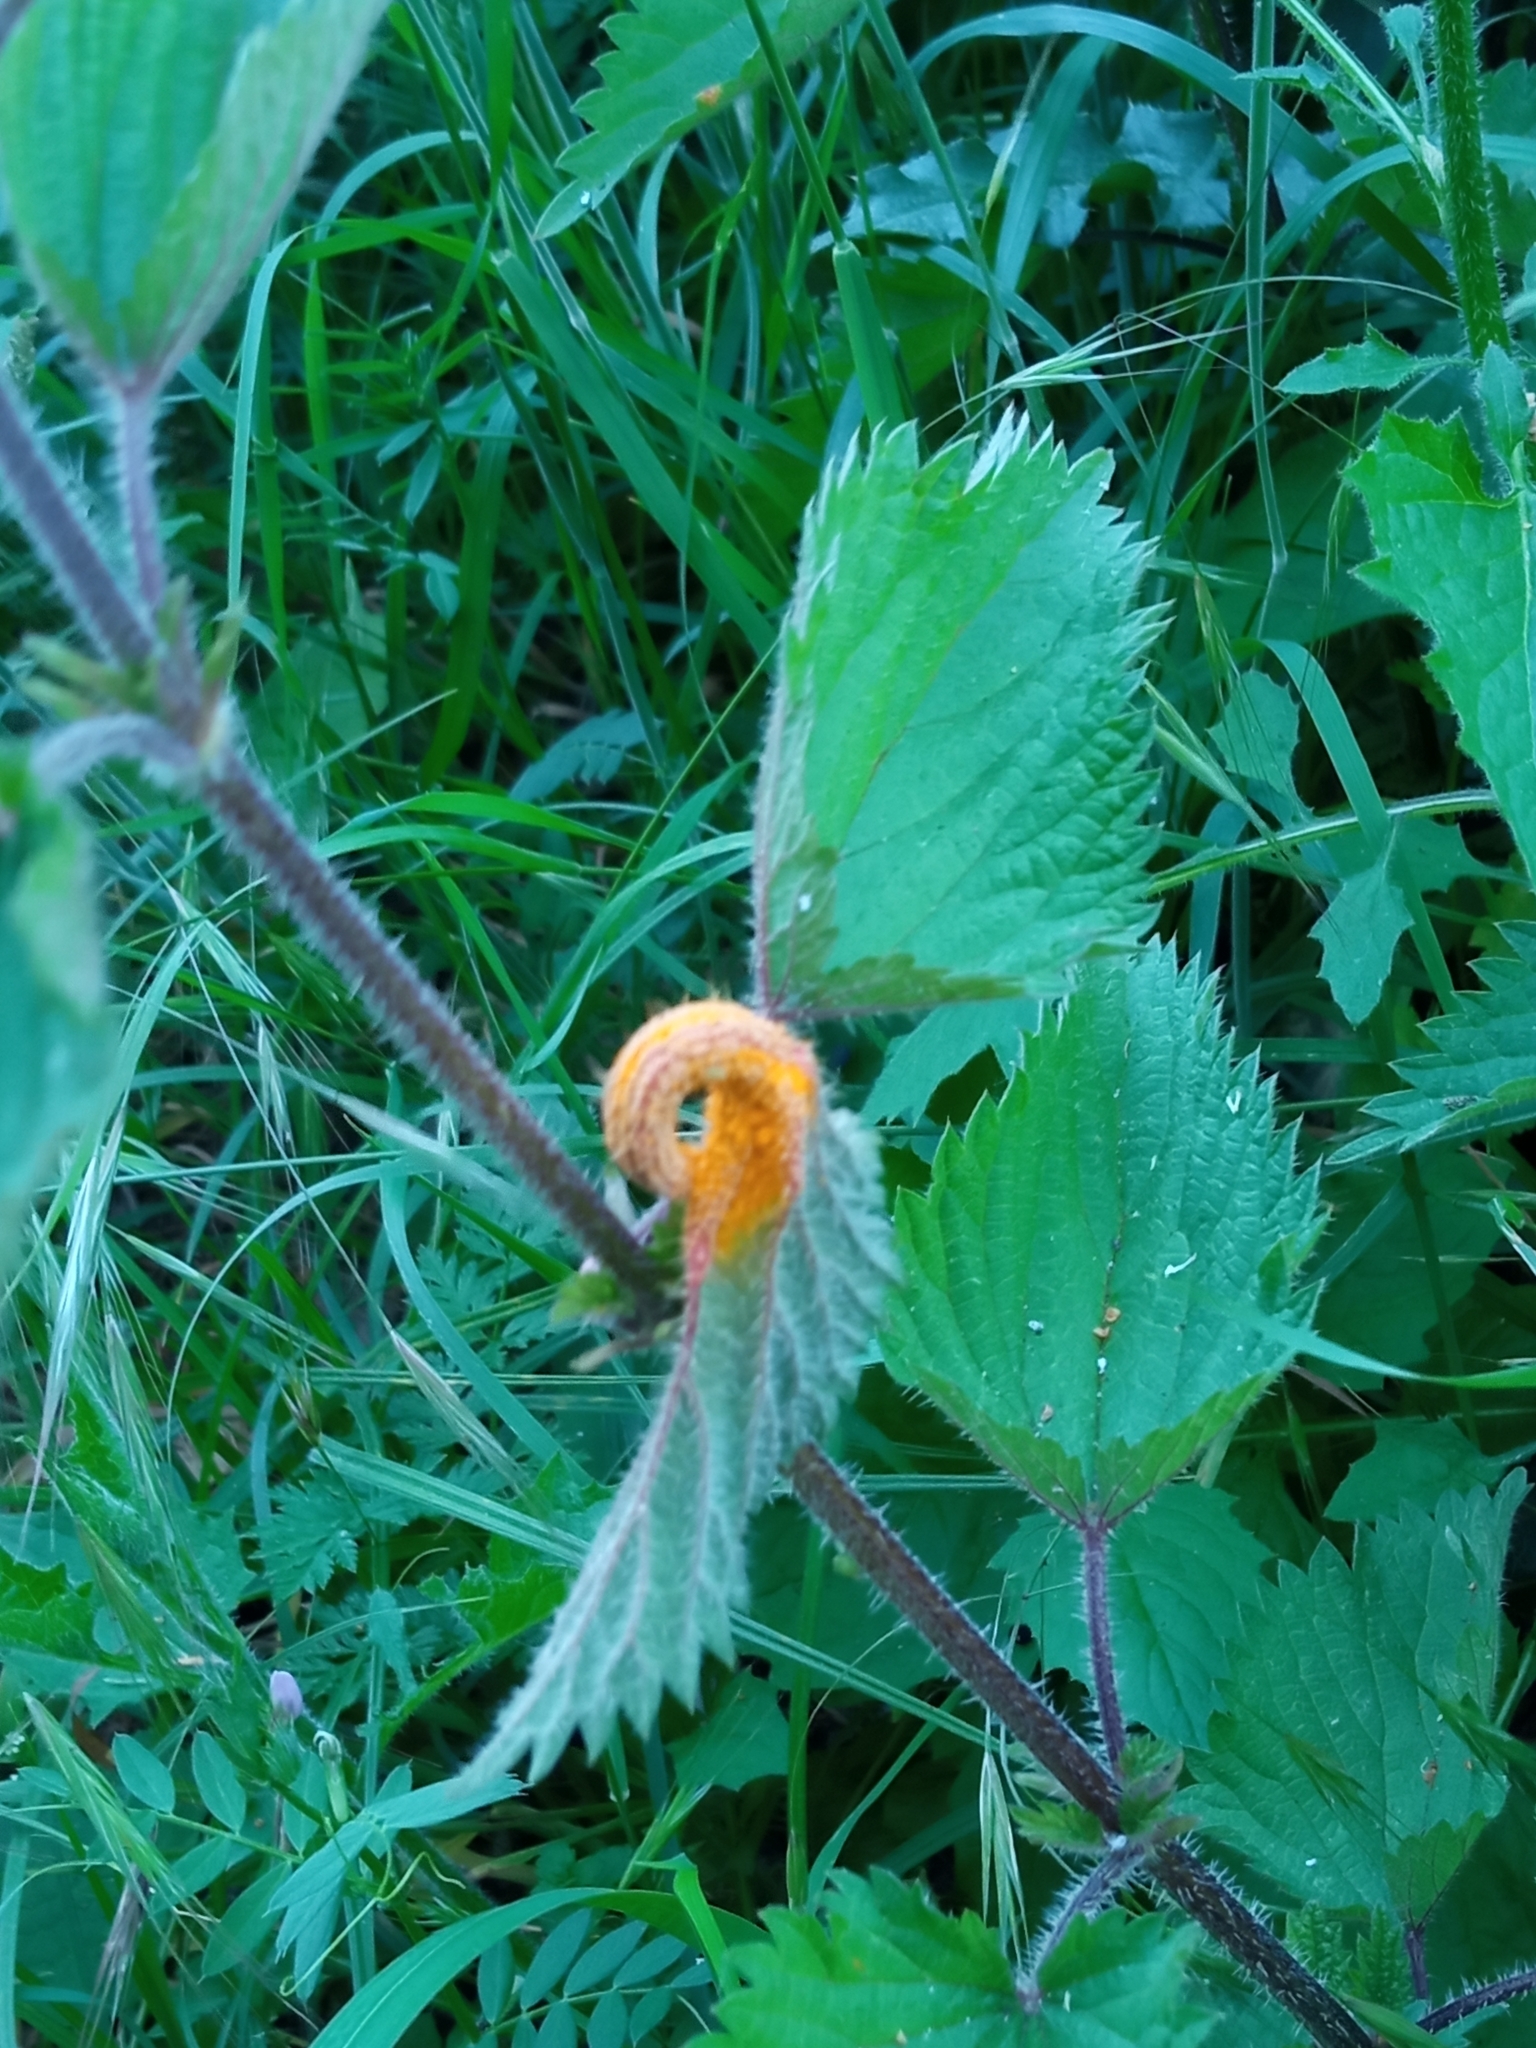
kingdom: Fungi
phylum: Basidiomycota
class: Pucciniomycetes
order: Pucciniales
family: Pucciniaceae
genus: Puccinia
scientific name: Puccinia urticata
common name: Nettle clustercup rust fungus
